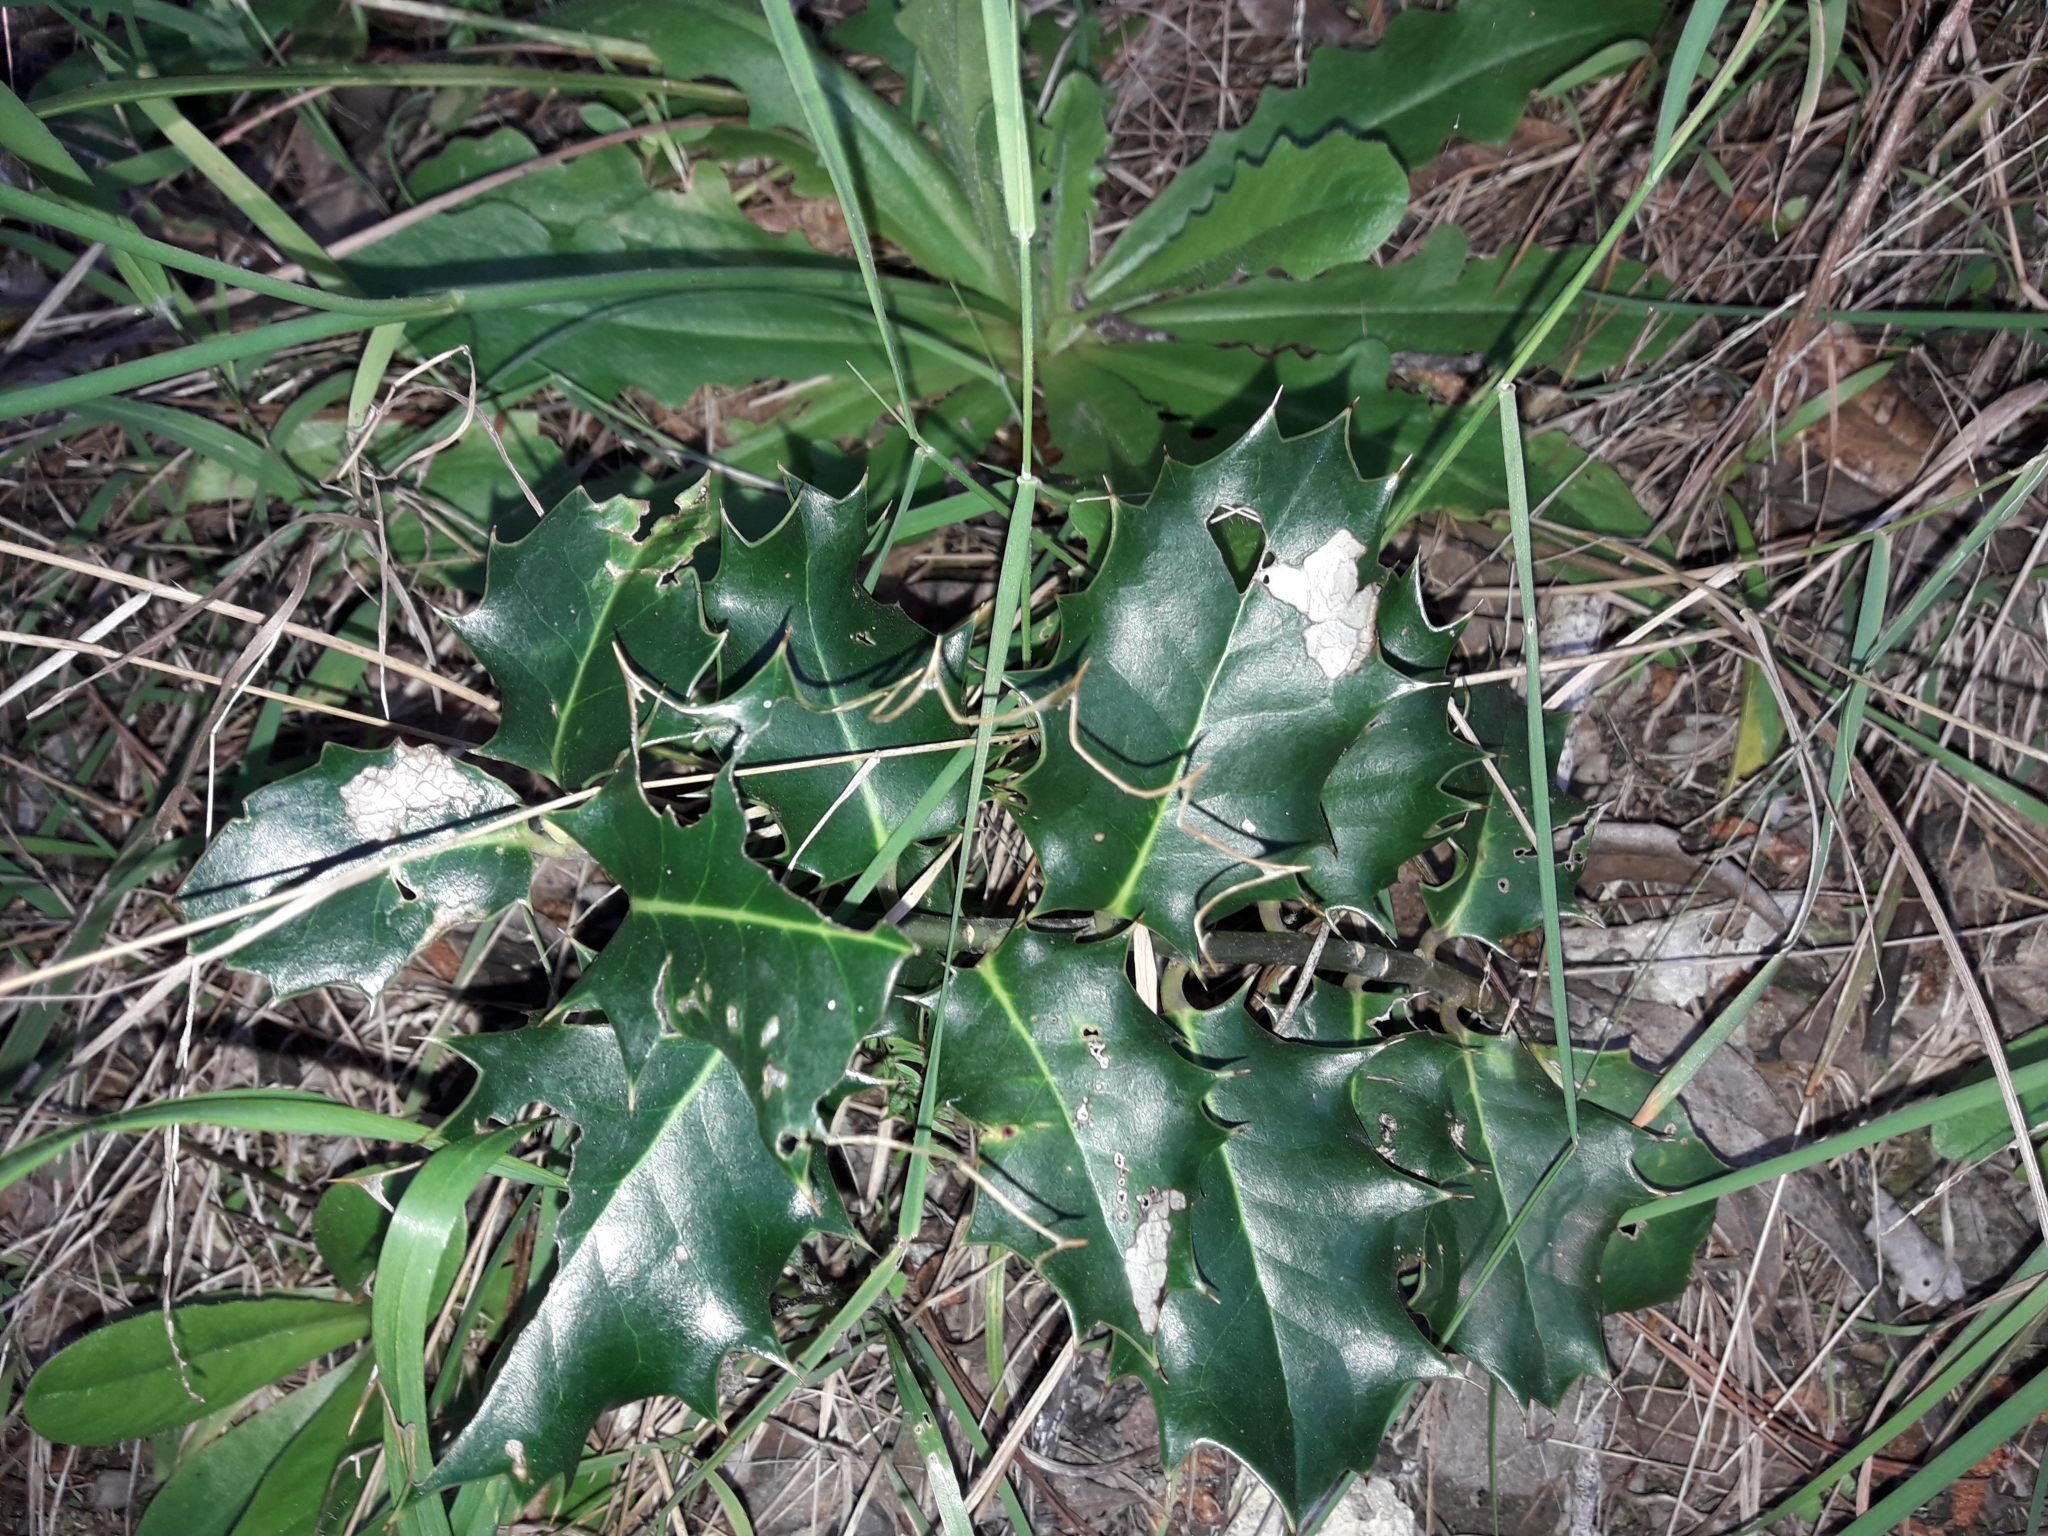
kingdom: Plantae
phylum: Tracheophyta
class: Magnoliopsida
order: Aquifoliales
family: Aquifoliaceae
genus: Ilex
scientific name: Ilex aquifolium
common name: English holly
